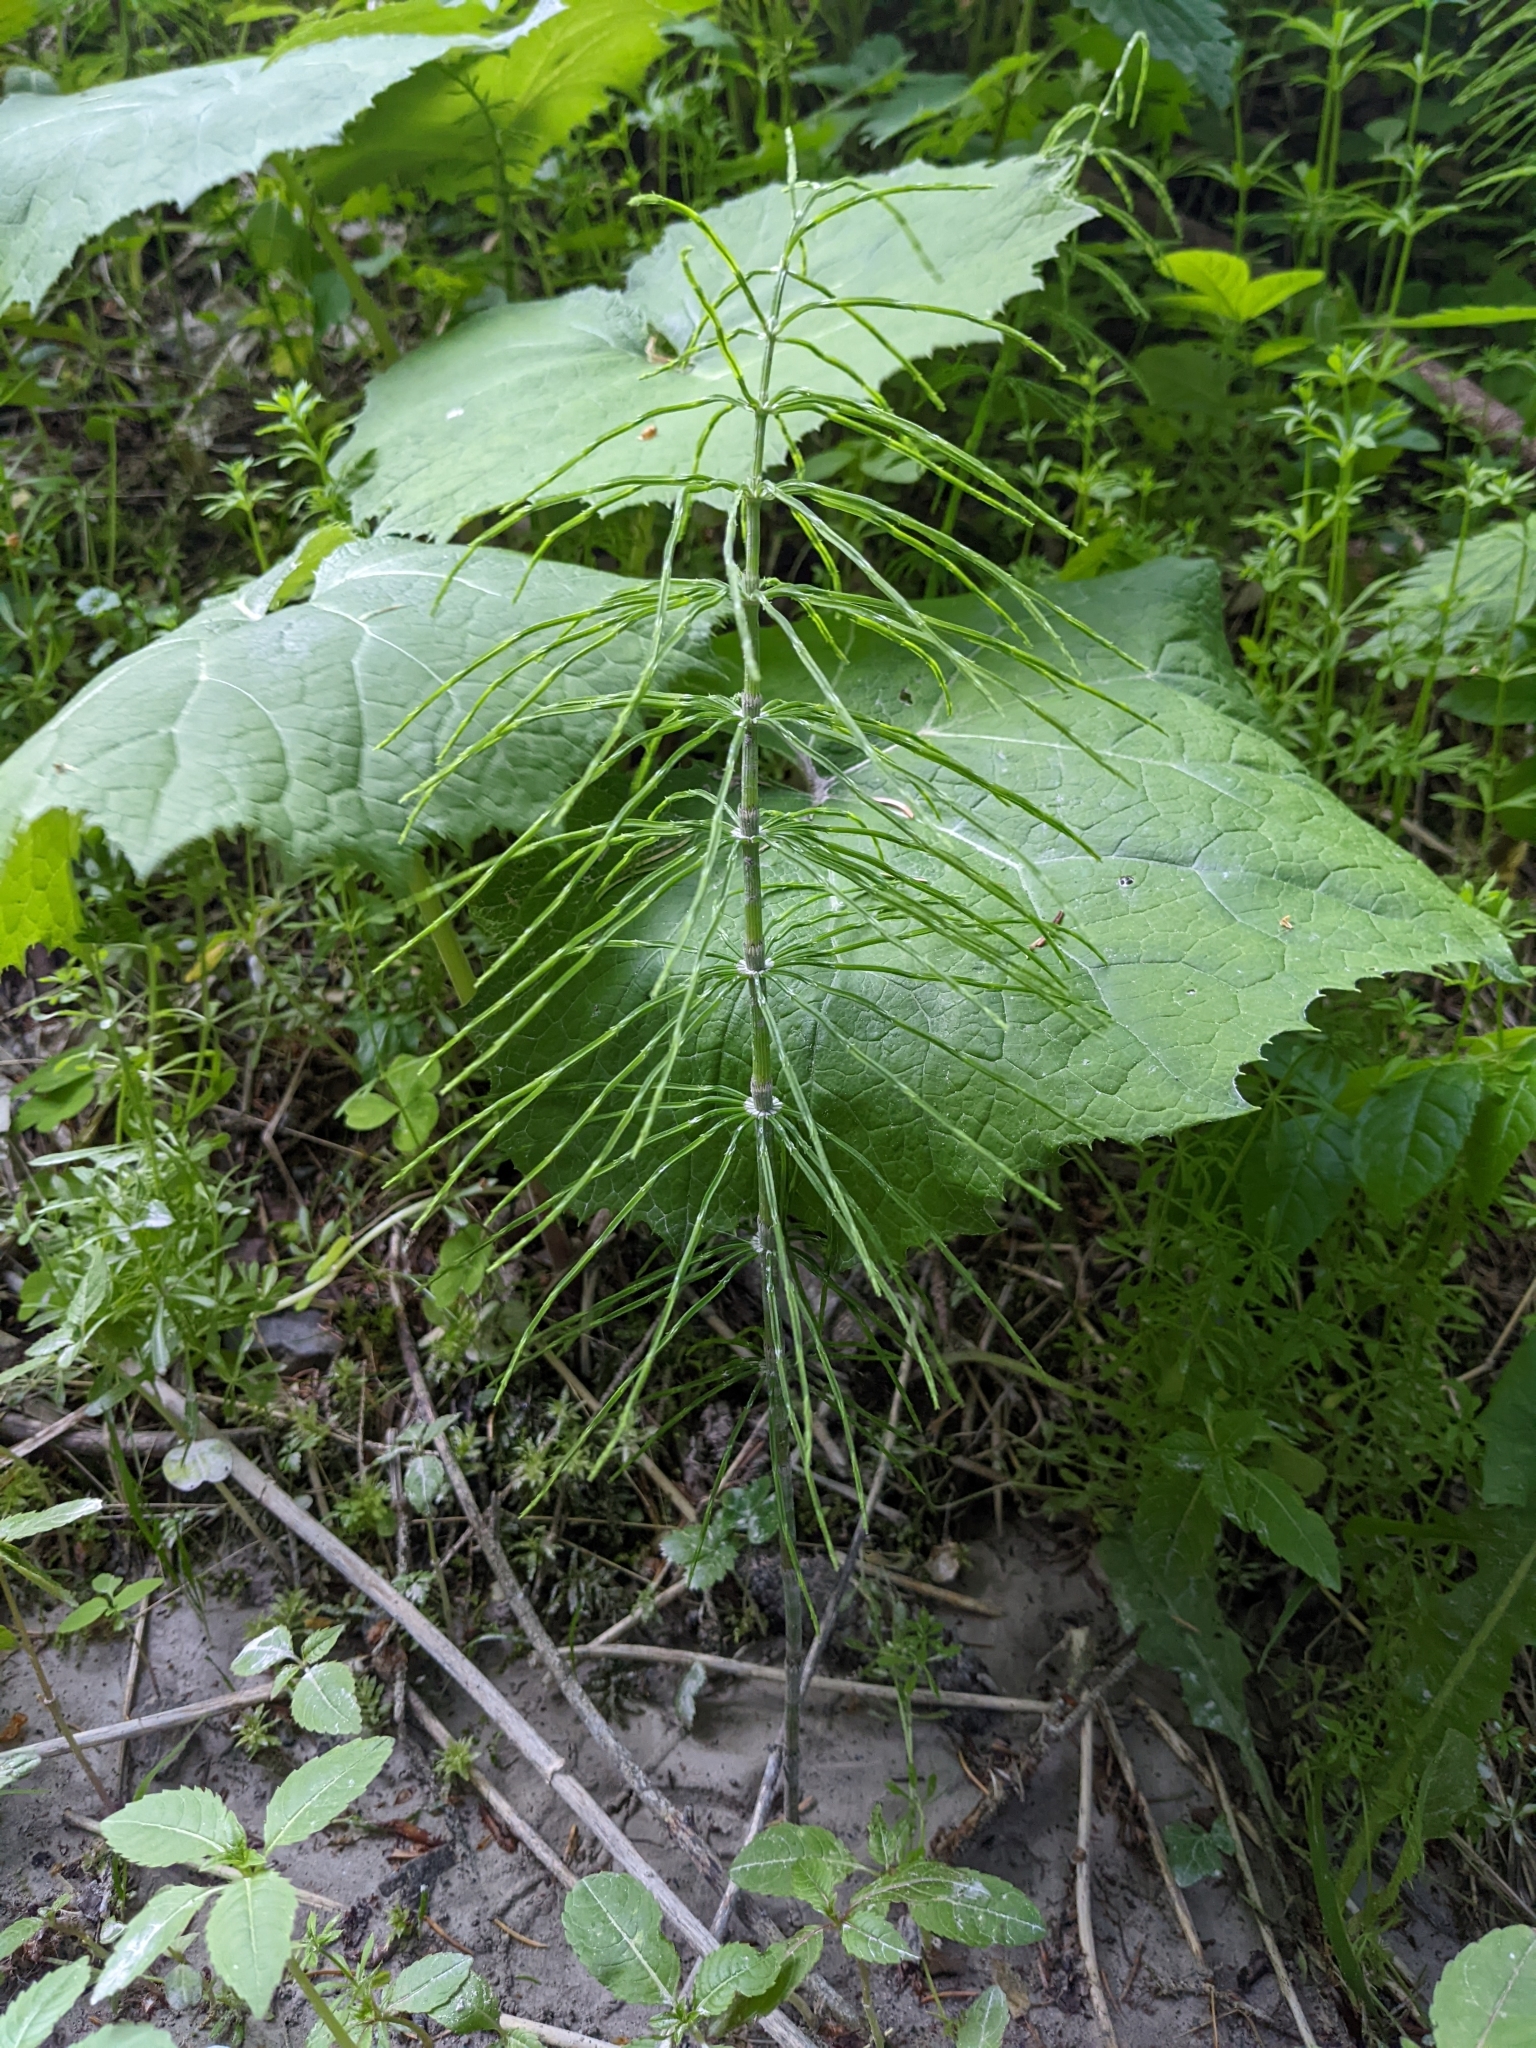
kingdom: Plantae
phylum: Tracheophyta
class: Polypodiopsida
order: Equisetales
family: Equisetaceae
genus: Equisetum
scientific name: Equisetum arvense
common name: Field horsetail
